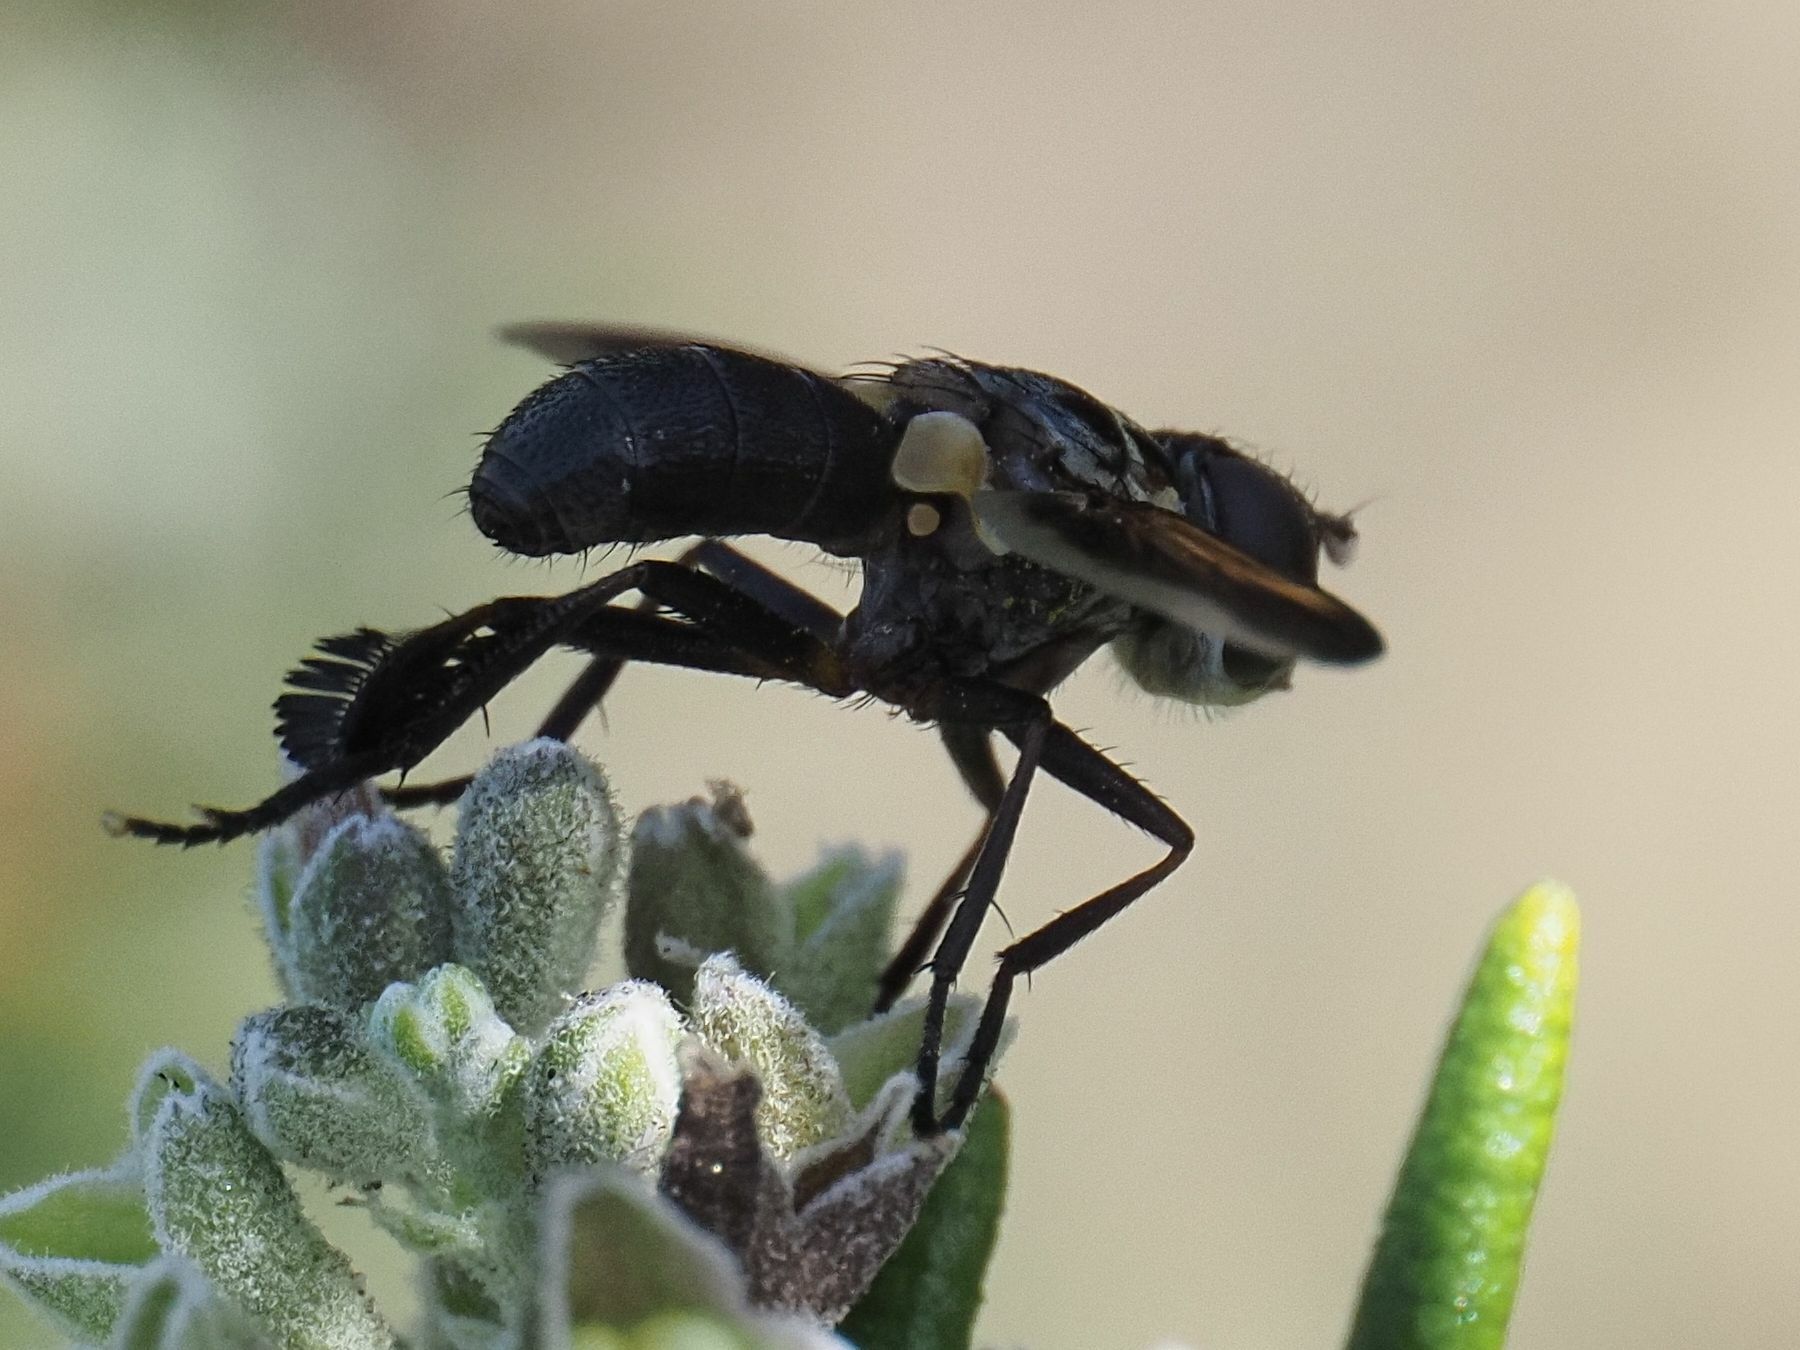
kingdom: Animalia
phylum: Arthropoda
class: Insecta
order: Diptera
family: Tachinidae
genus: Trichopoda
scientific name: Trichopoda pictipennis
